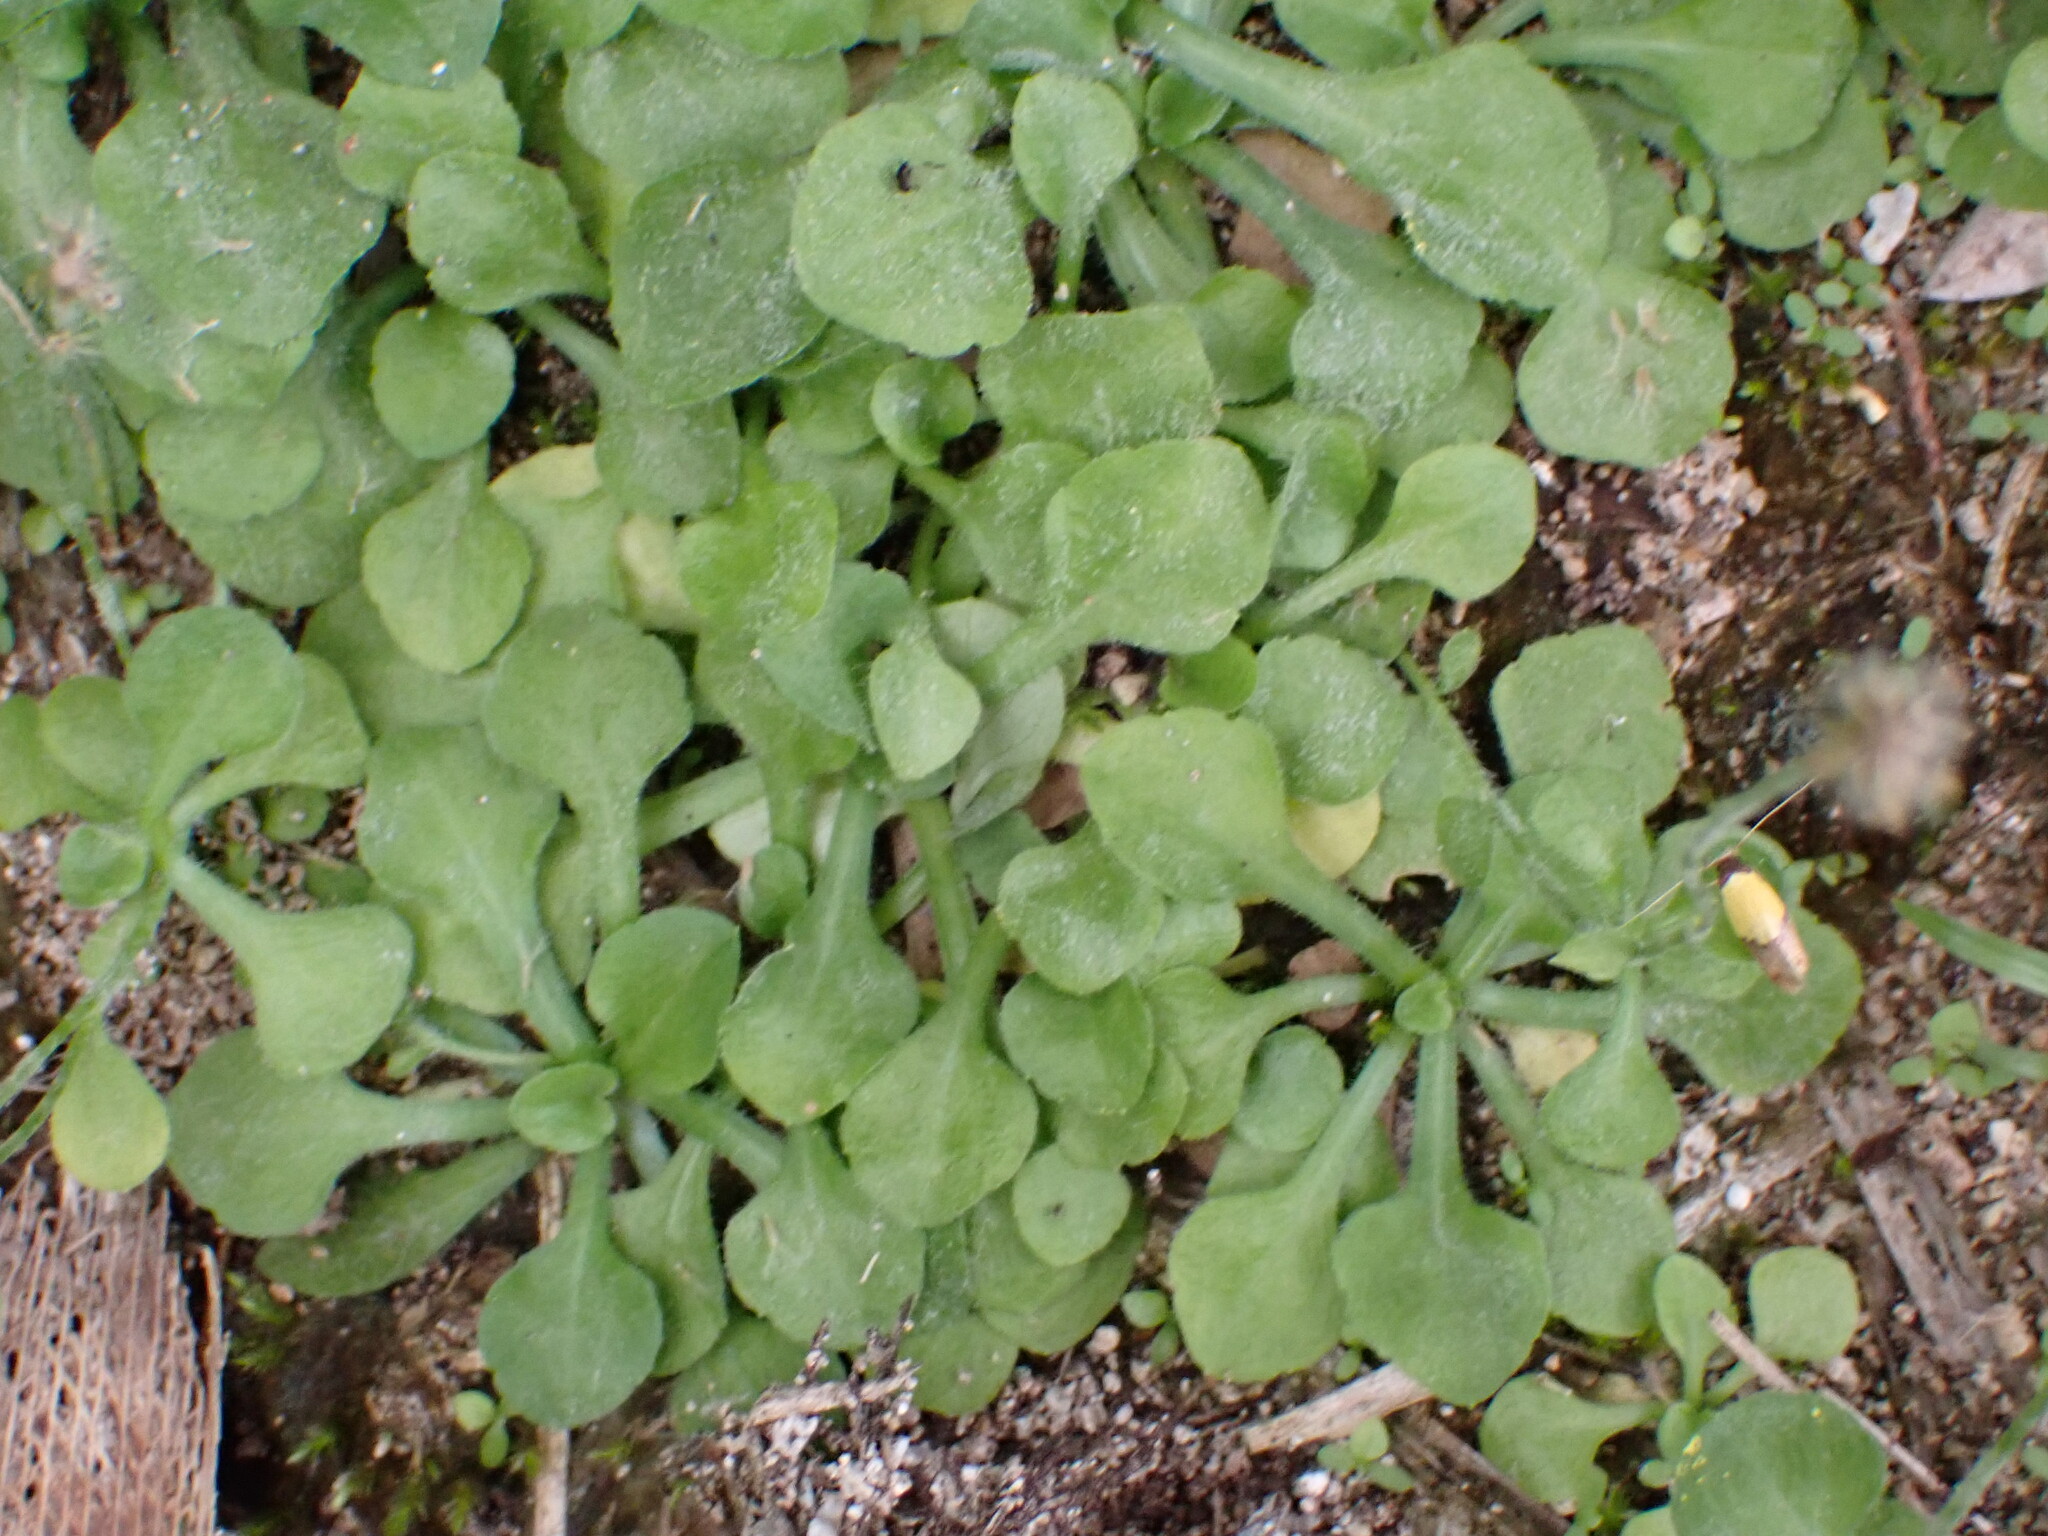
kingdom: Plantae
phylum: Tracheophyta
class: Magnoliopsida
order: Asterales
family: Asteraceae
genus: Erigeron
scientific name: Erigeron bellioides
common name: Bellorita
